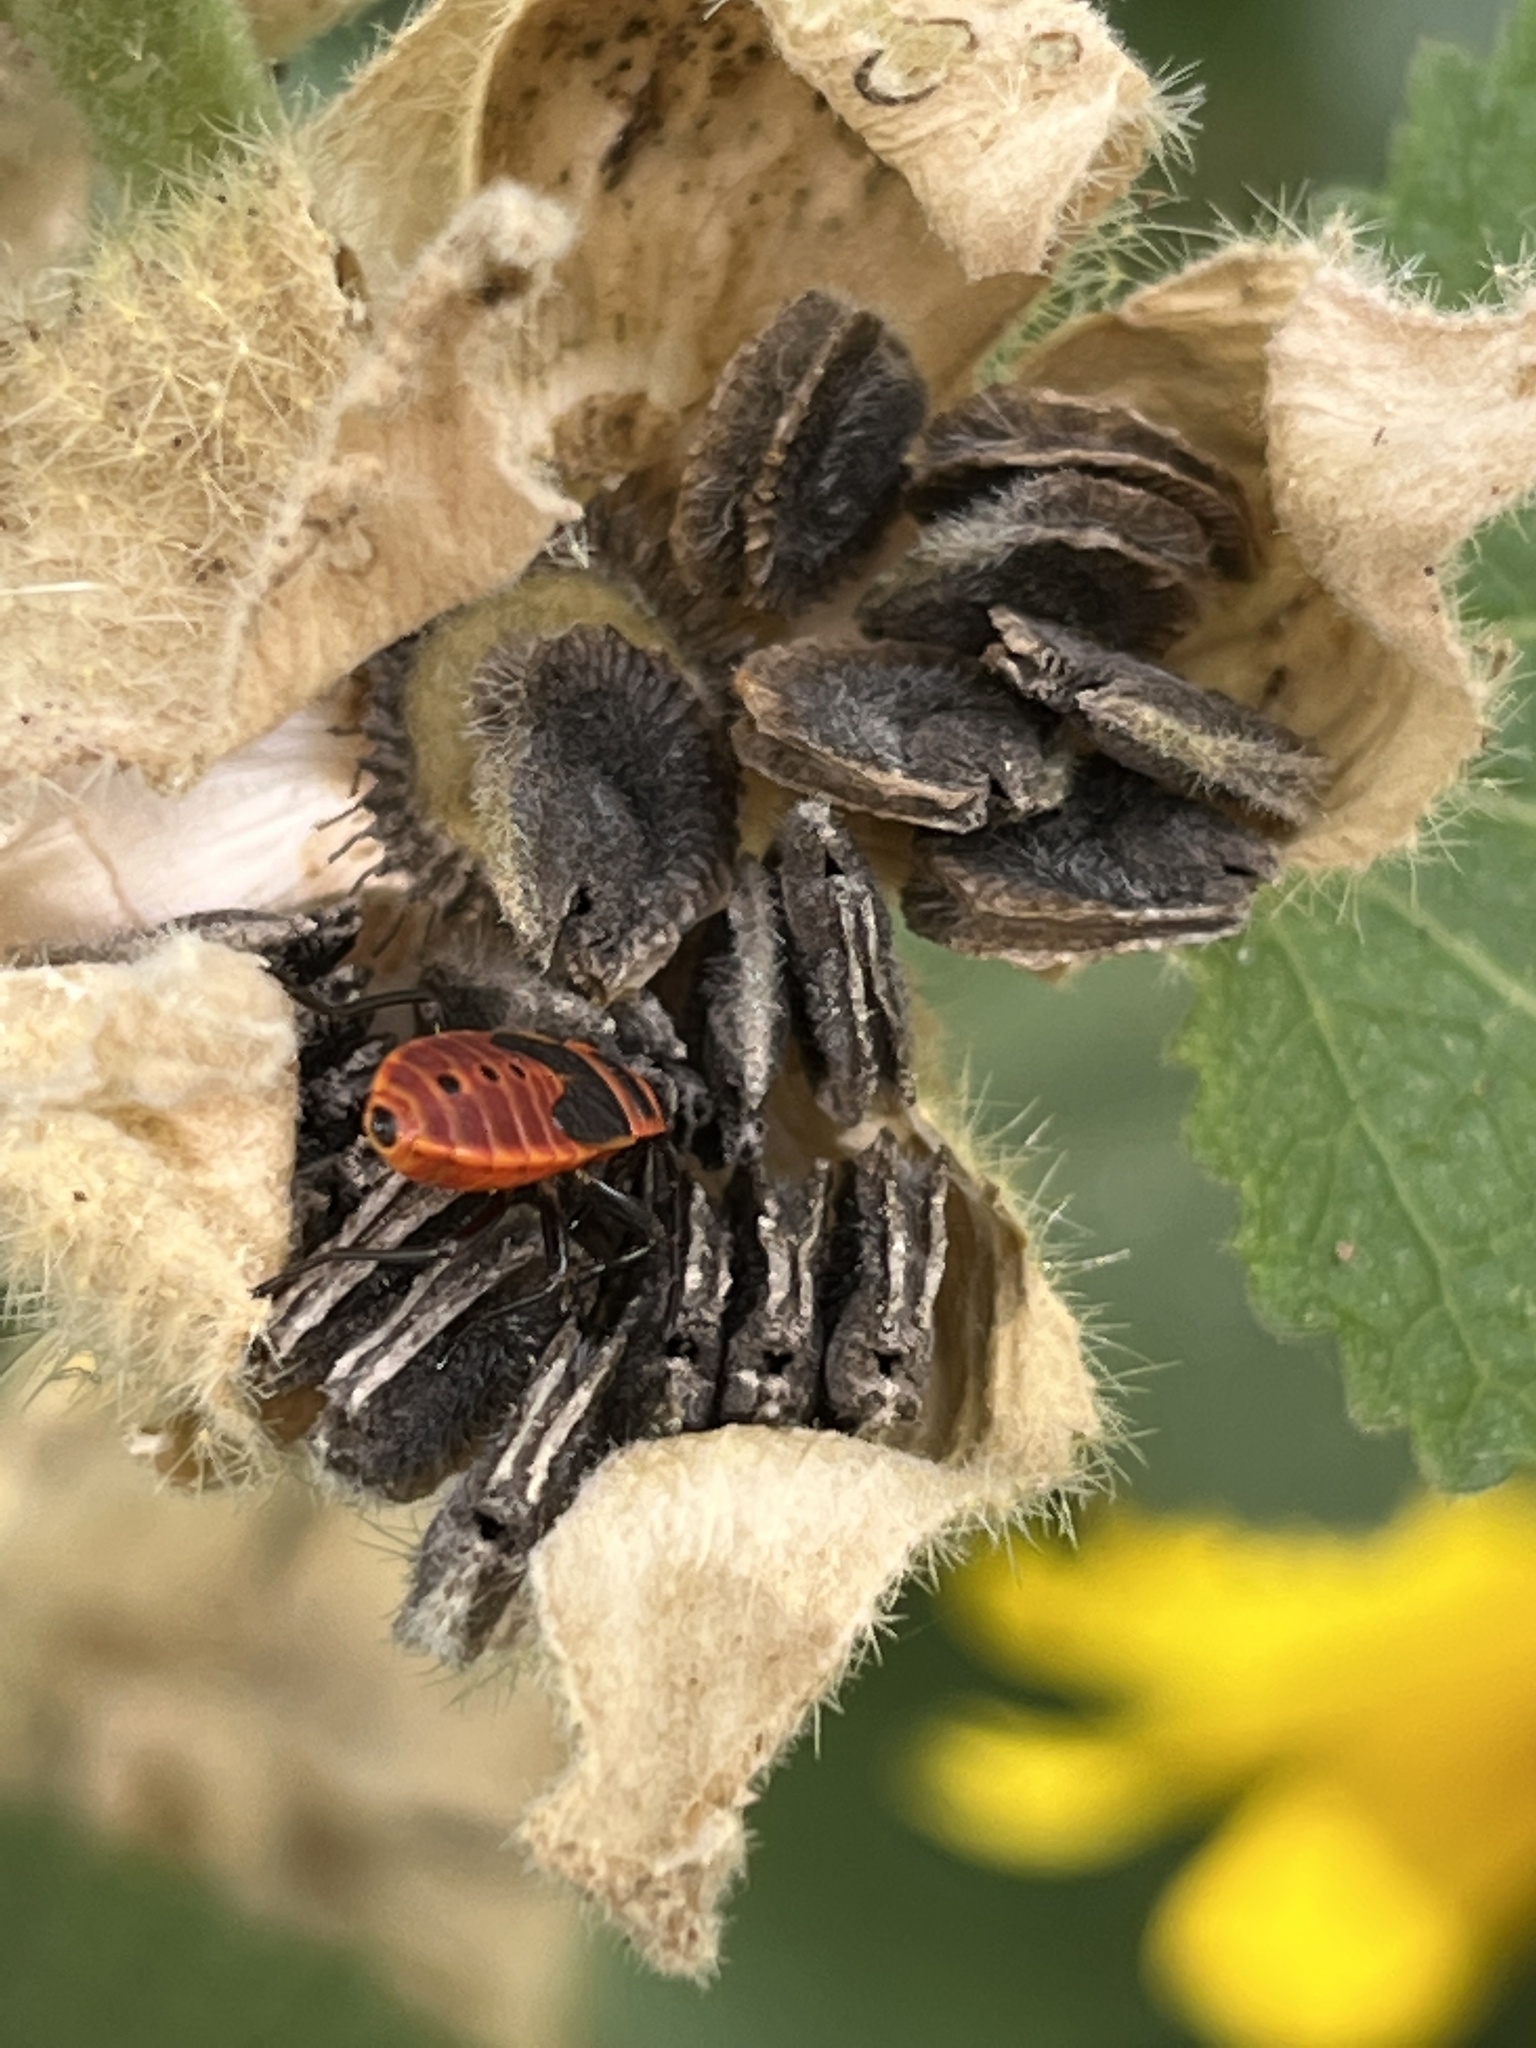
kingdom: Animalia
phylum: Arthropoda
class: Insecta
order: Hemiptera
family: Pyrrhocoridae
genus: Pyrrhocoris
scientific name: Pyrrhocoris apterus
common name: Firebug
